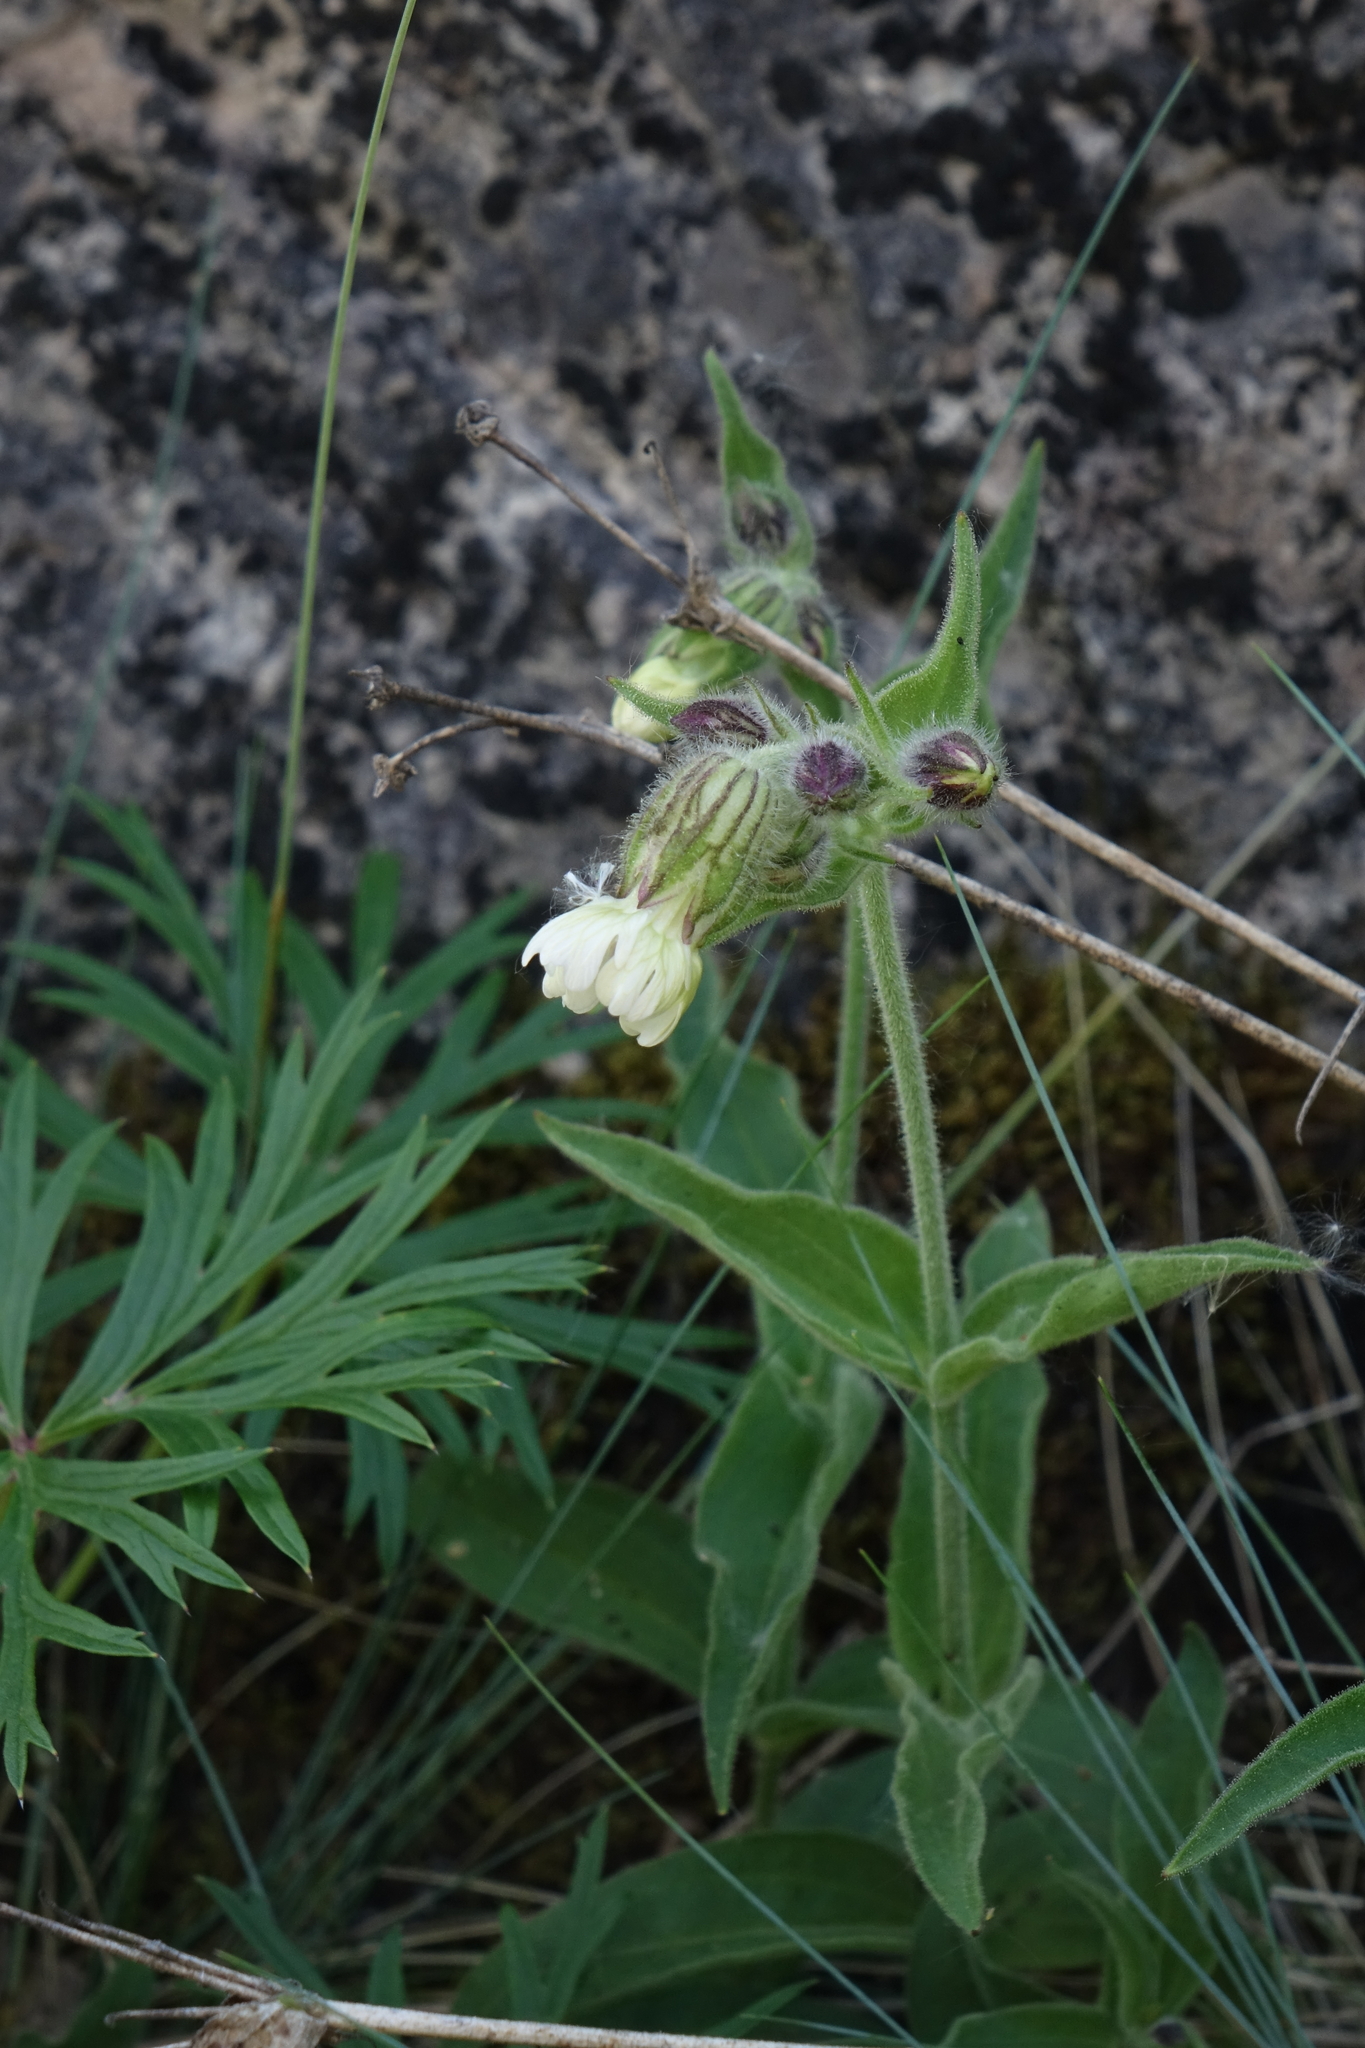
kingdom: Plantae
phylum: Tracheophyta
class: Magnoliopsida
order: Caryophyllales
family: Caryophyllaceae
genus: Silene
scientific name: Silene latifolia
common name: White campion
